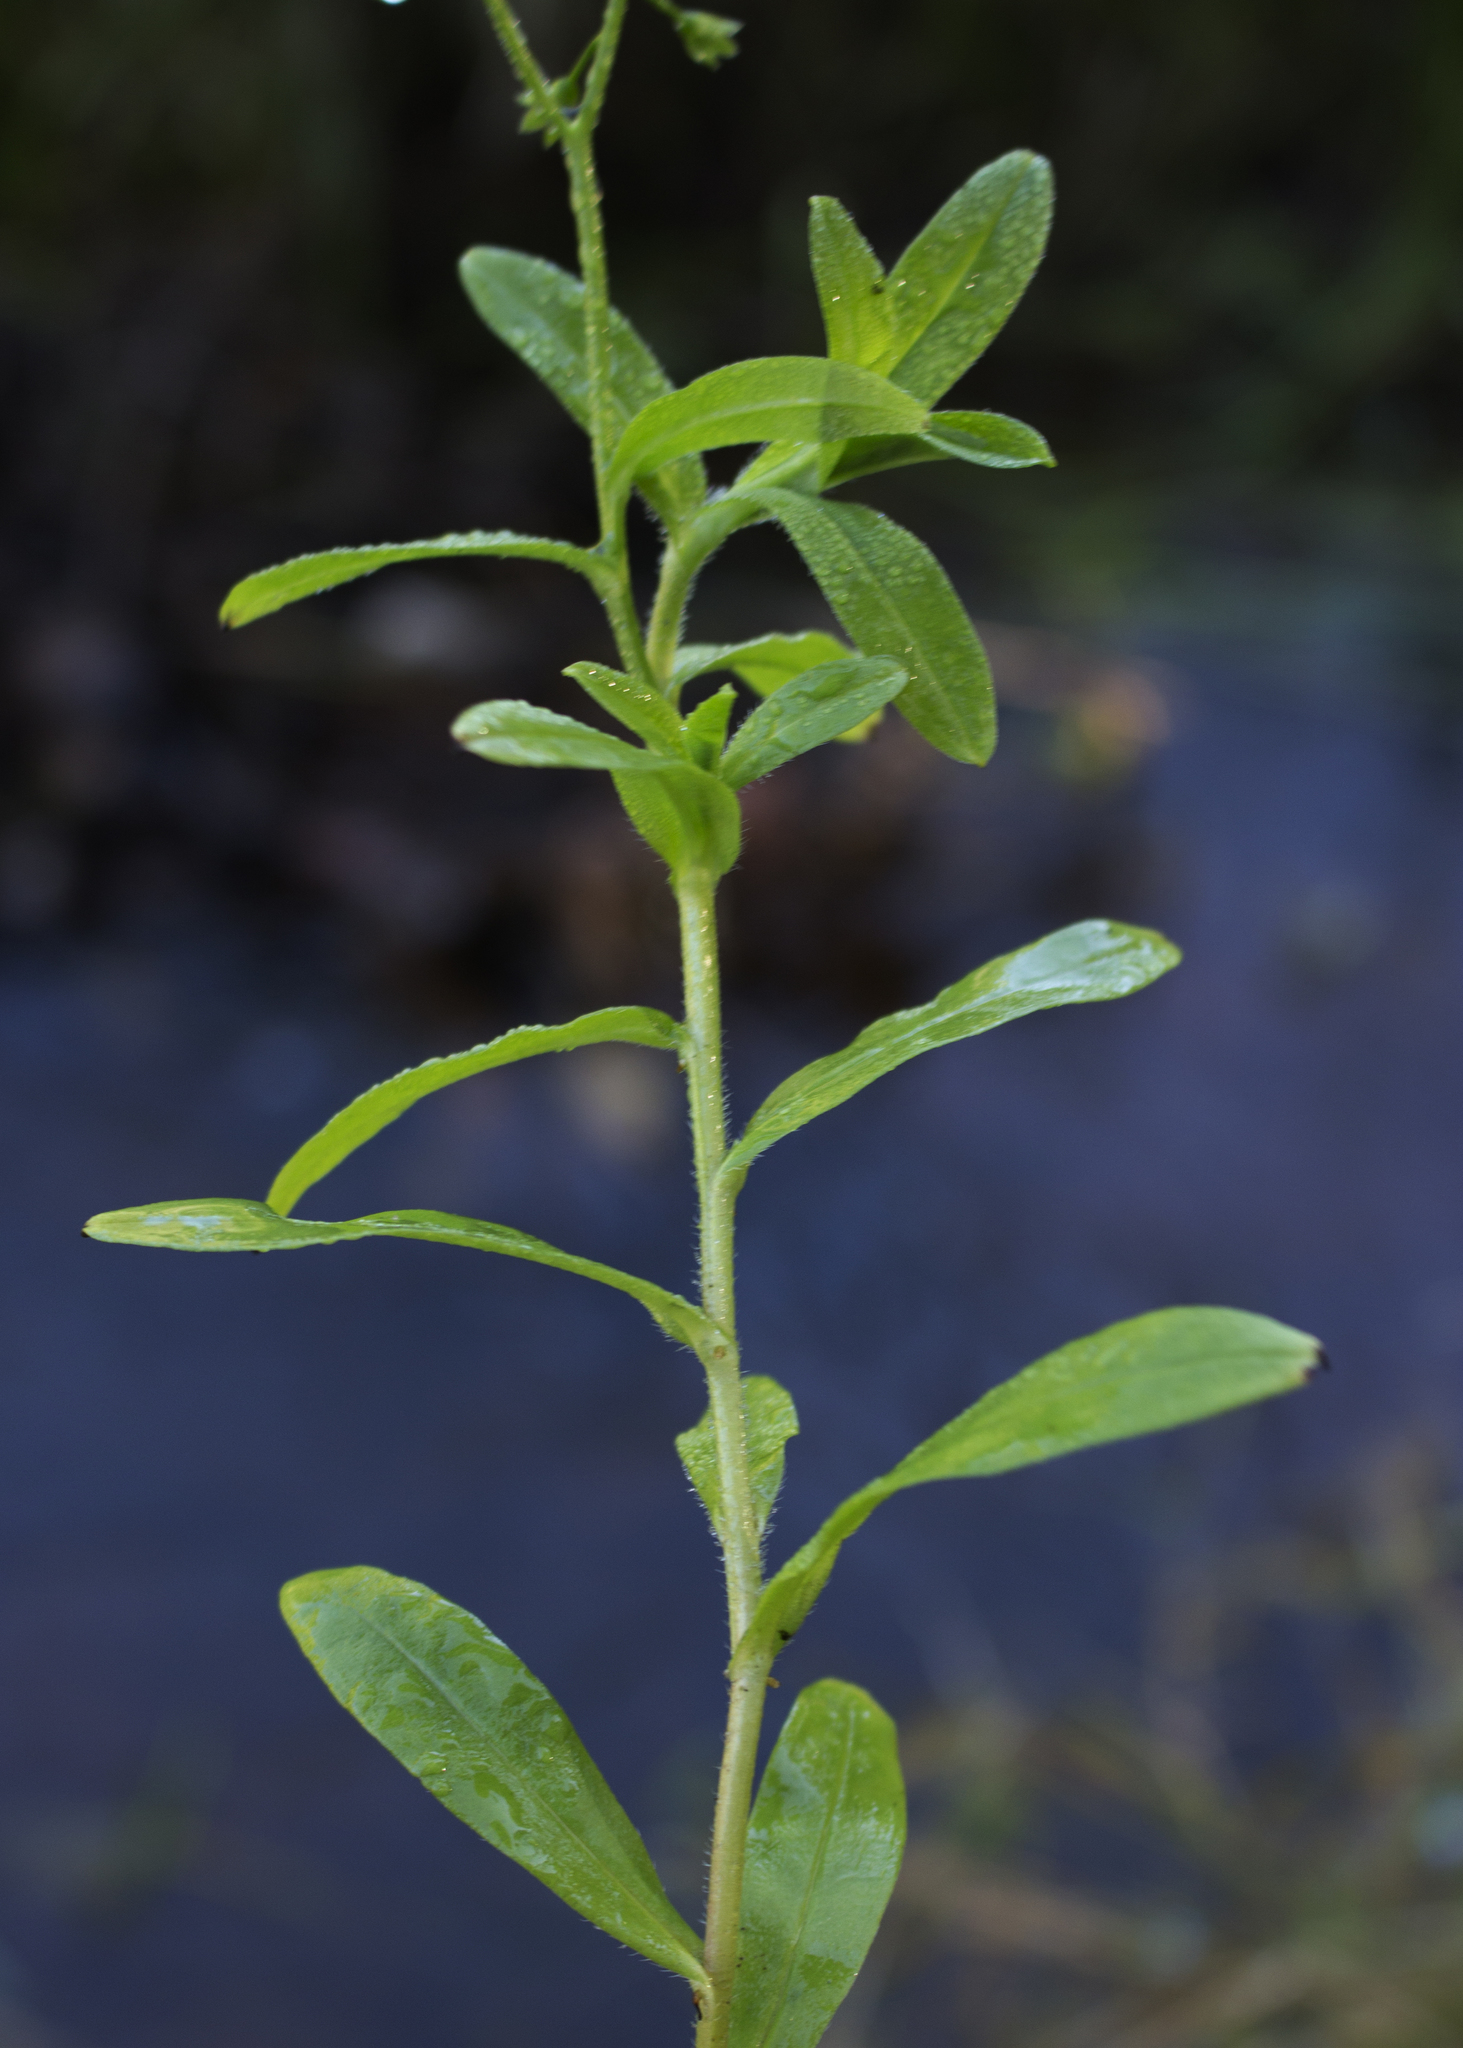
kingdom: Plantae
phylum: Tracheophyta
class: Magnoliopsida
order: Boraginales
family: Boraginaceae
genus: Myosotis
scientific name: Myosotis scorpioides
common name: Water forget-me-not
